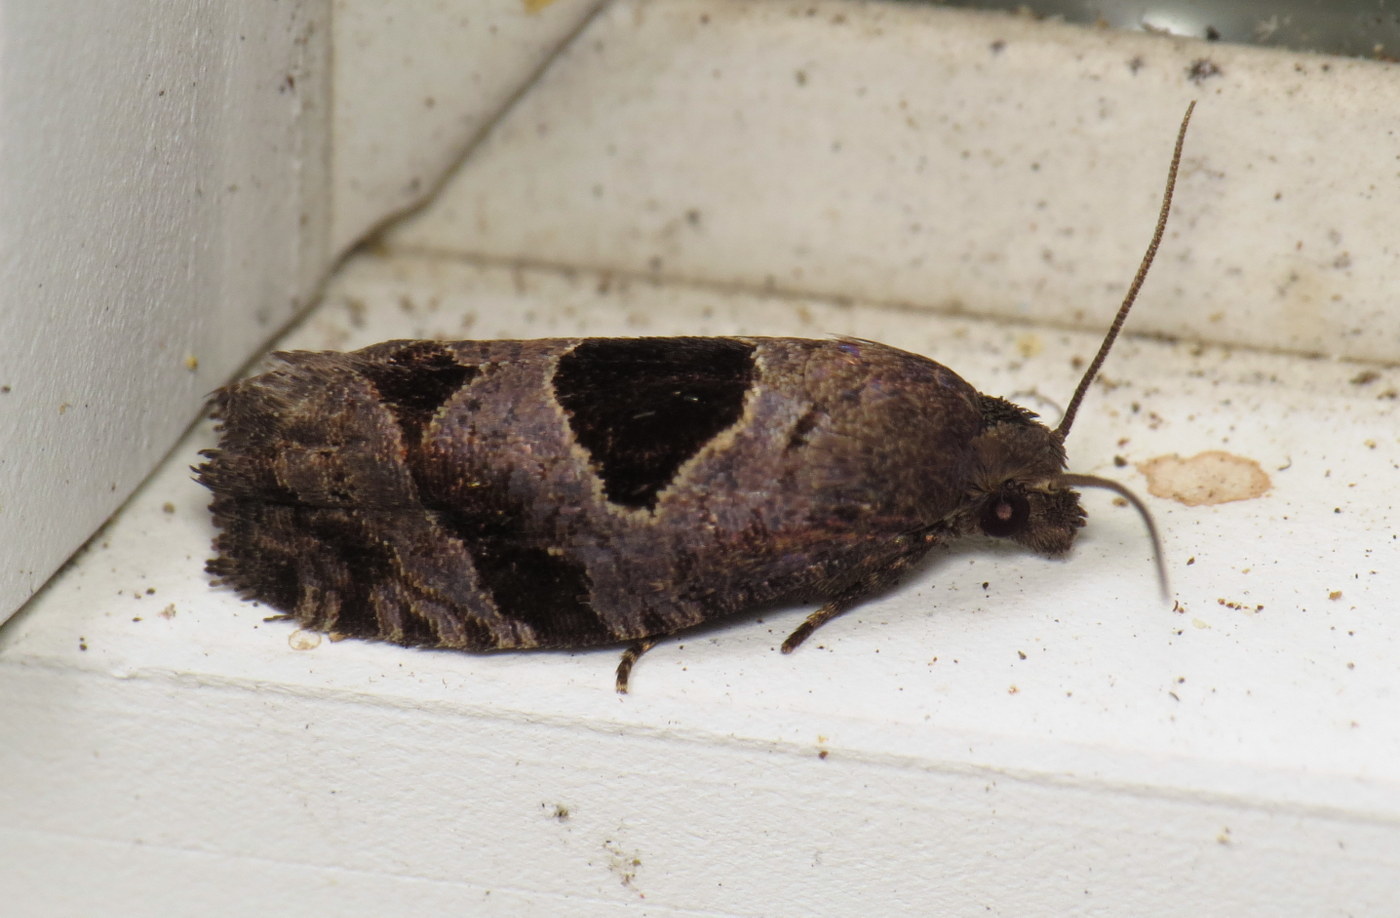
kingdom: Animalia
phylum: Arthropoda
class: Insecta
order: Lepidoptera
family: Tortricidae
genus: Epiblema
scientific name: Epiblema brightonana
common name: Brighton's epiblema moth
